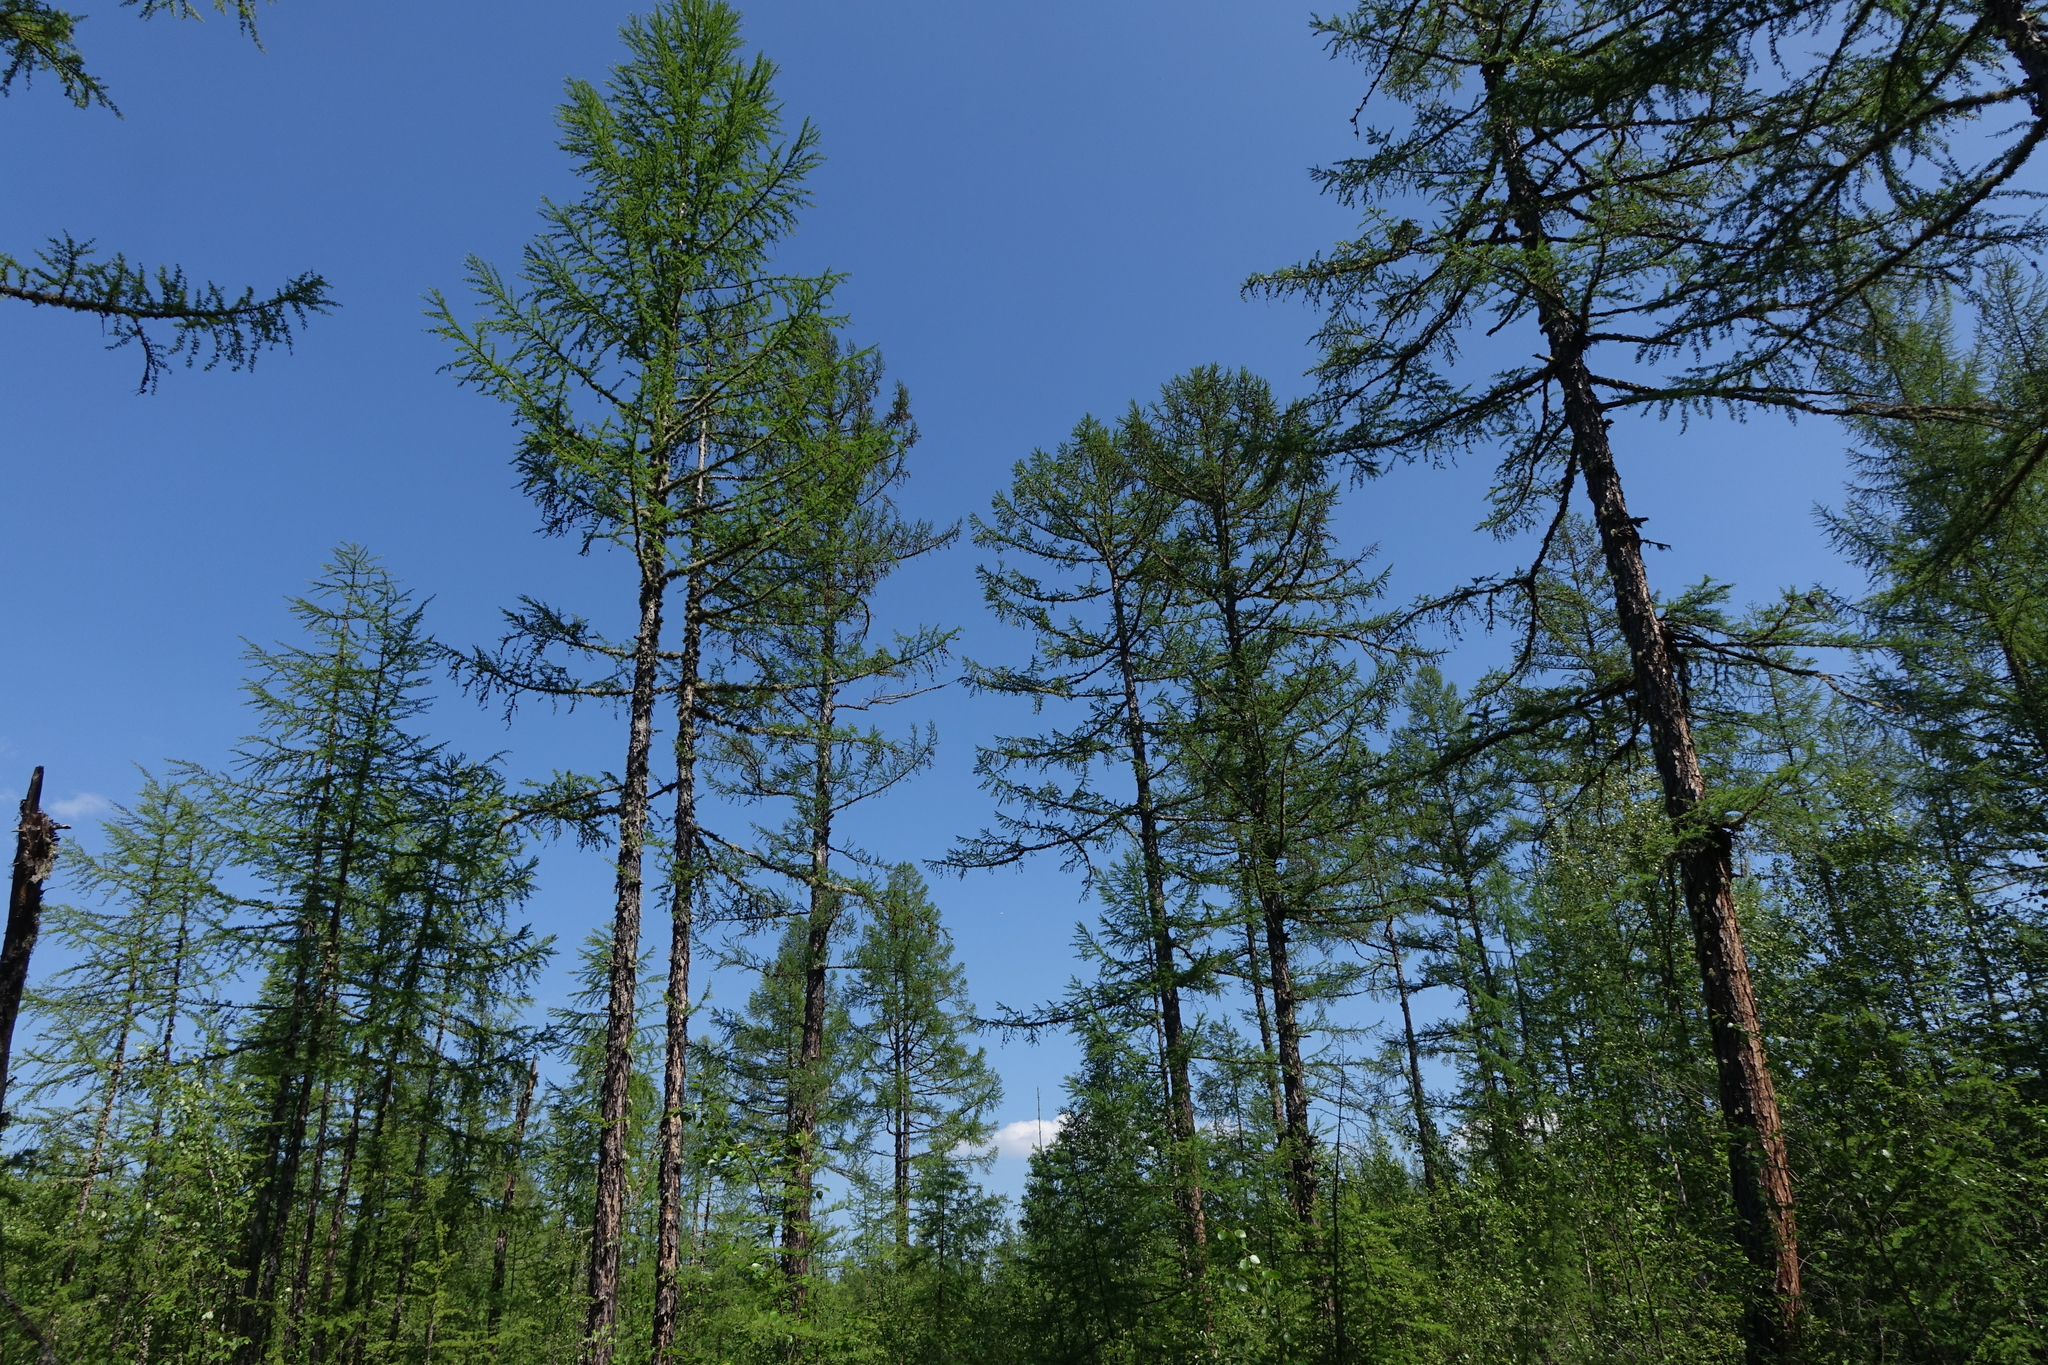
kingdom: Plantae
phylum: Tracheophyta
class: Pinopsida
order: Pinales
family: Pinaceae
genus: Larix
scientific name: Larix gmelinii
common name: Dahurian larch
